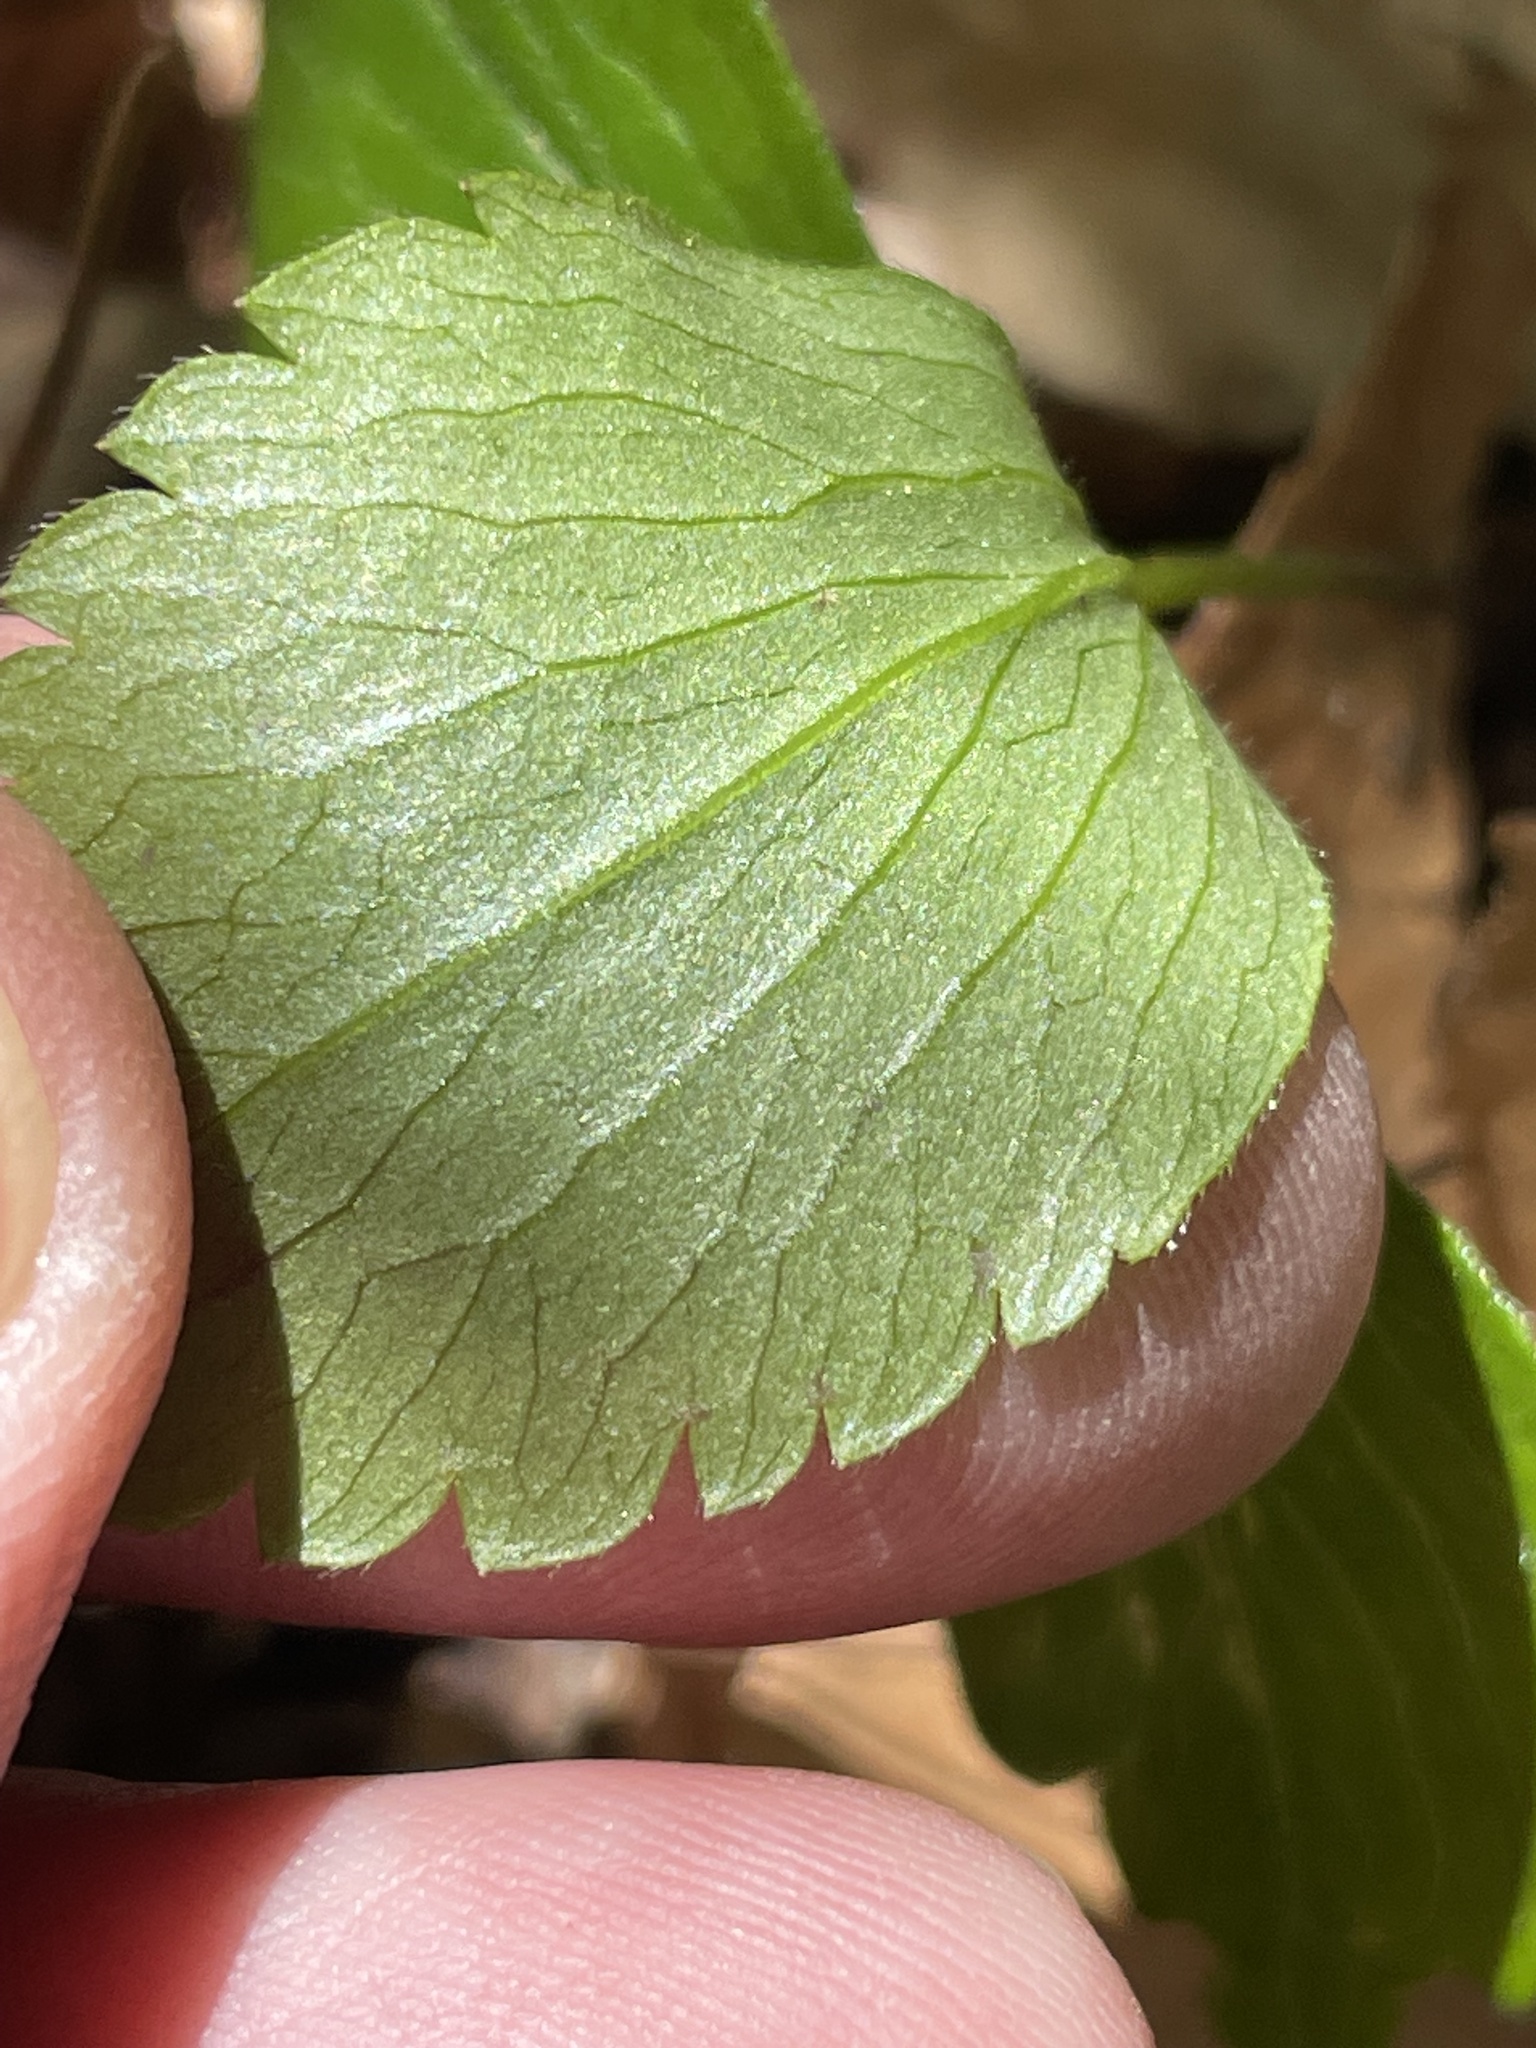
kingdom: Plantae
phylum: Tracheophyta
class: Magnoliopsida
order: Ranunculales
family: Ranunculaceae
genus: Anemone
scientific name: Anemone lancifolia
